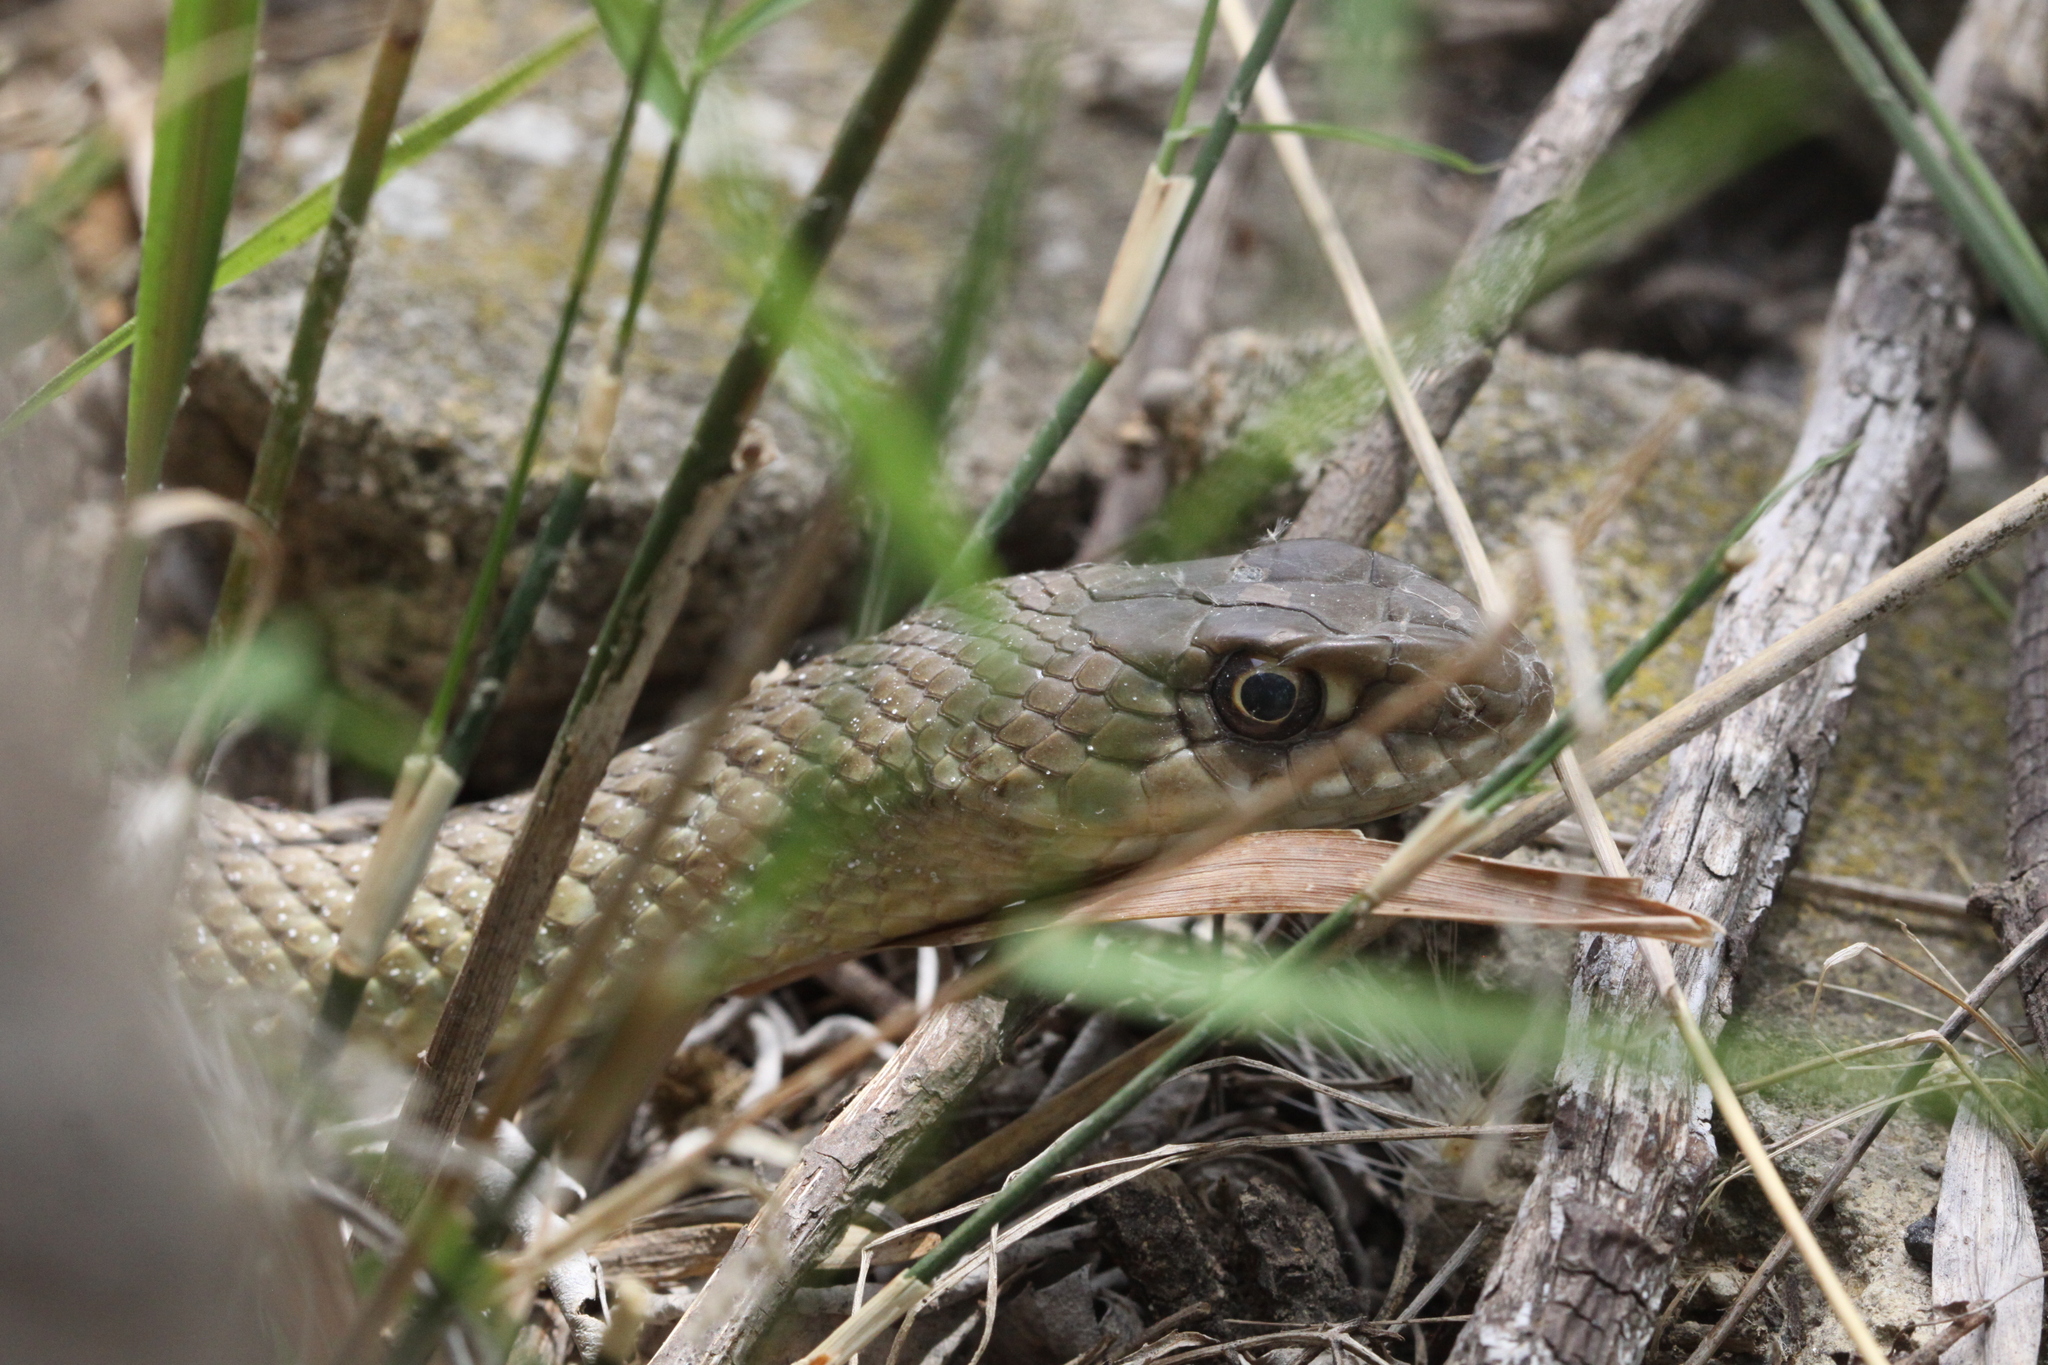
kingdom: Animalia
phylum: Chordata
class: Squamata
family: Psammophiidae
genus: Malpolon
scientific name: Malpolon monspessulanus
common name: Montpellier snake
